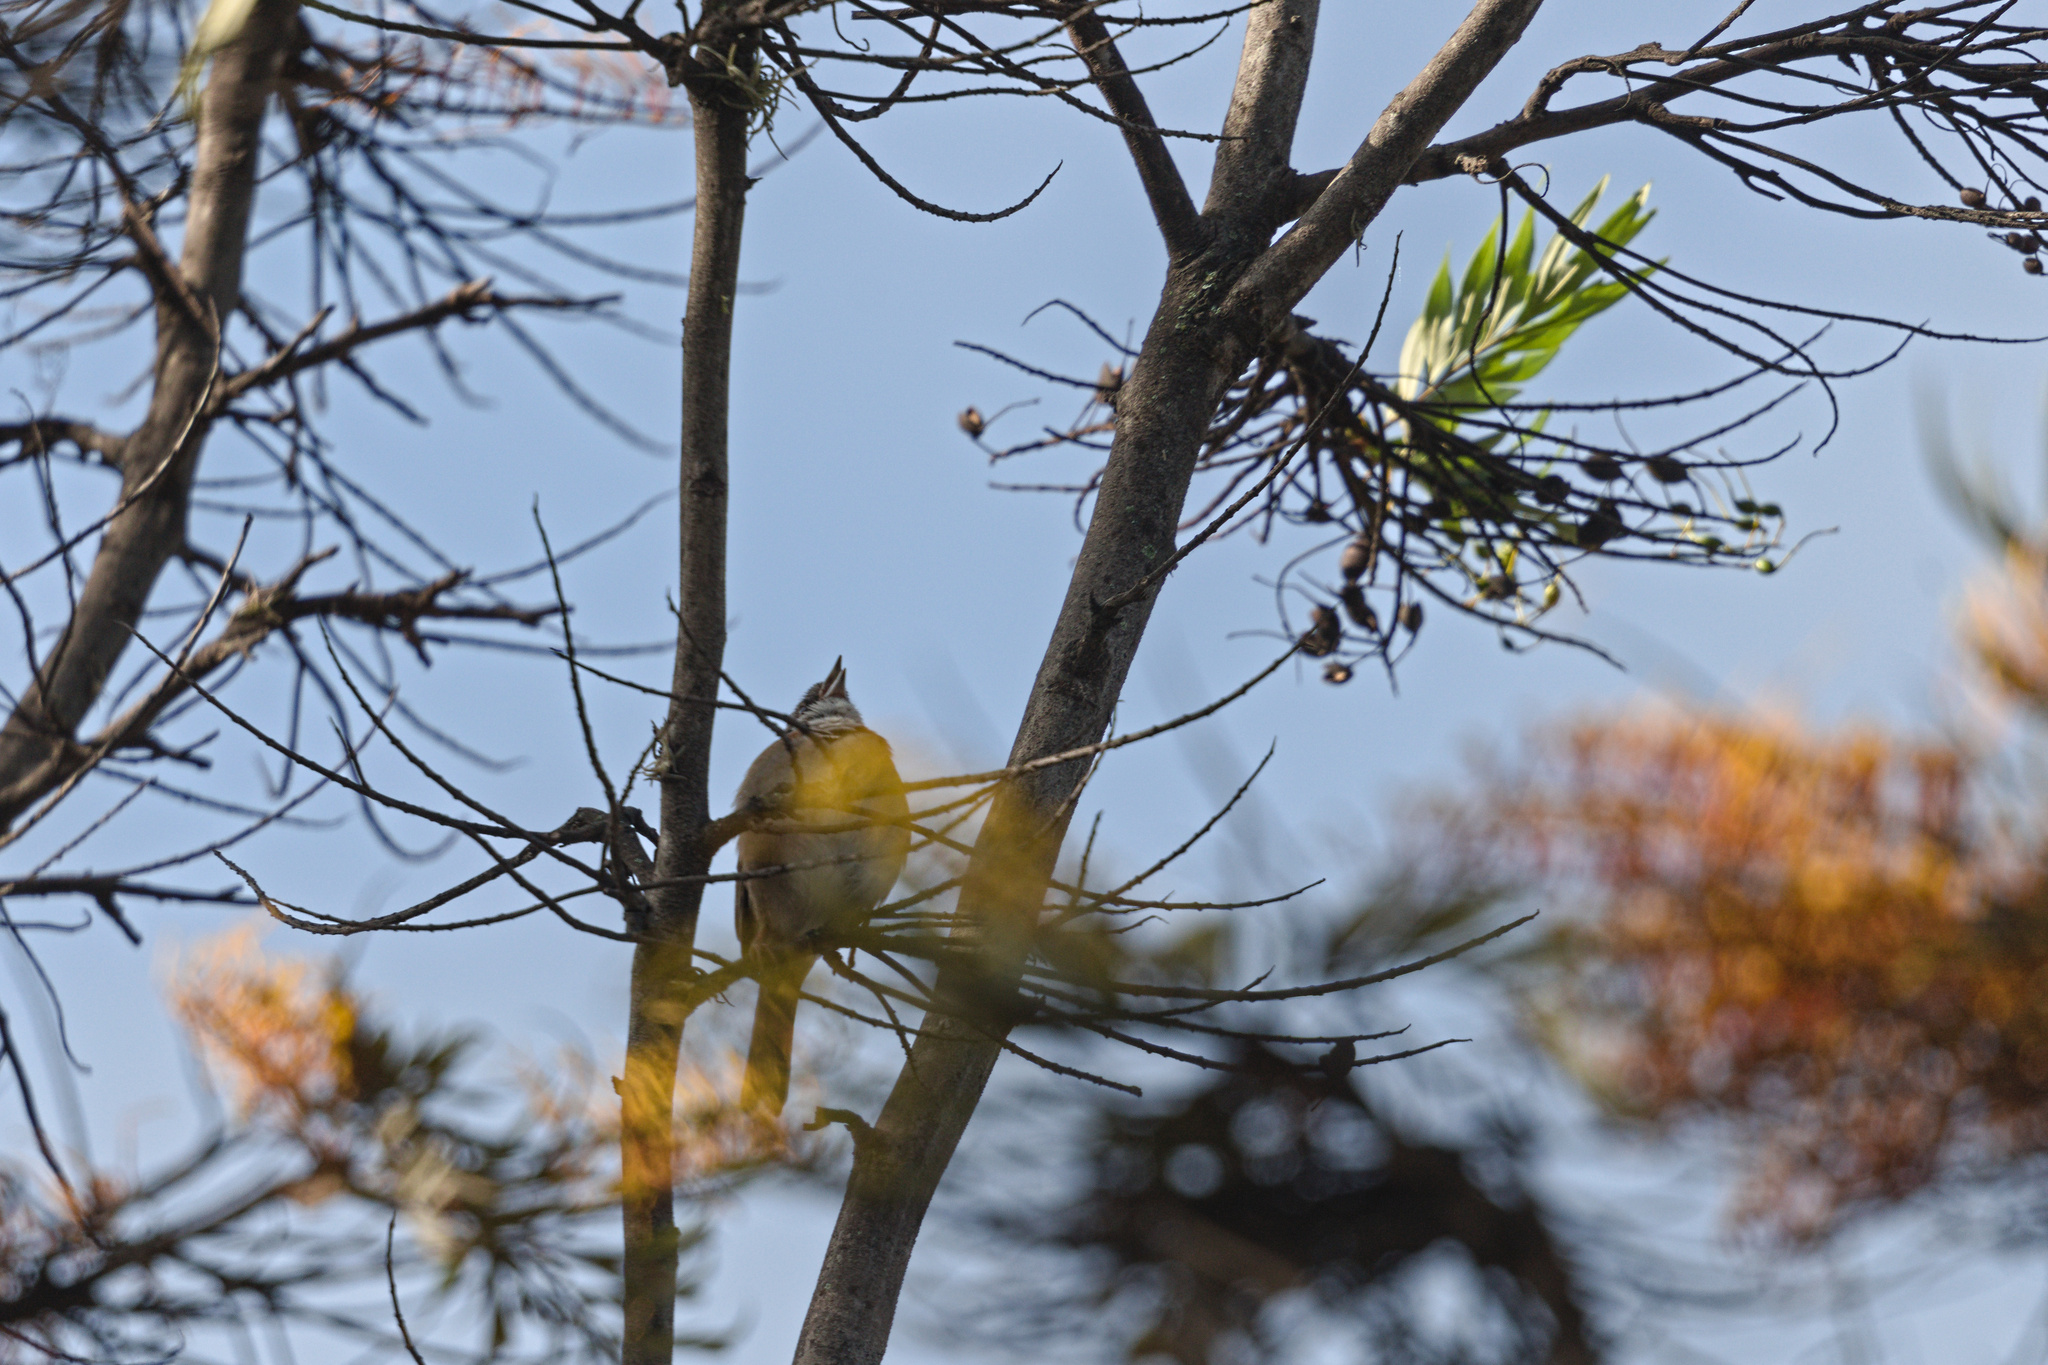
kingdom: Animalia
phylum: Chordata
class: Aves
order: Passeriformes
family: Passerellidae
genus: Zonotrichia
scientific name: Zonotrichia capensis
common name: Rufous-collared sparrow
